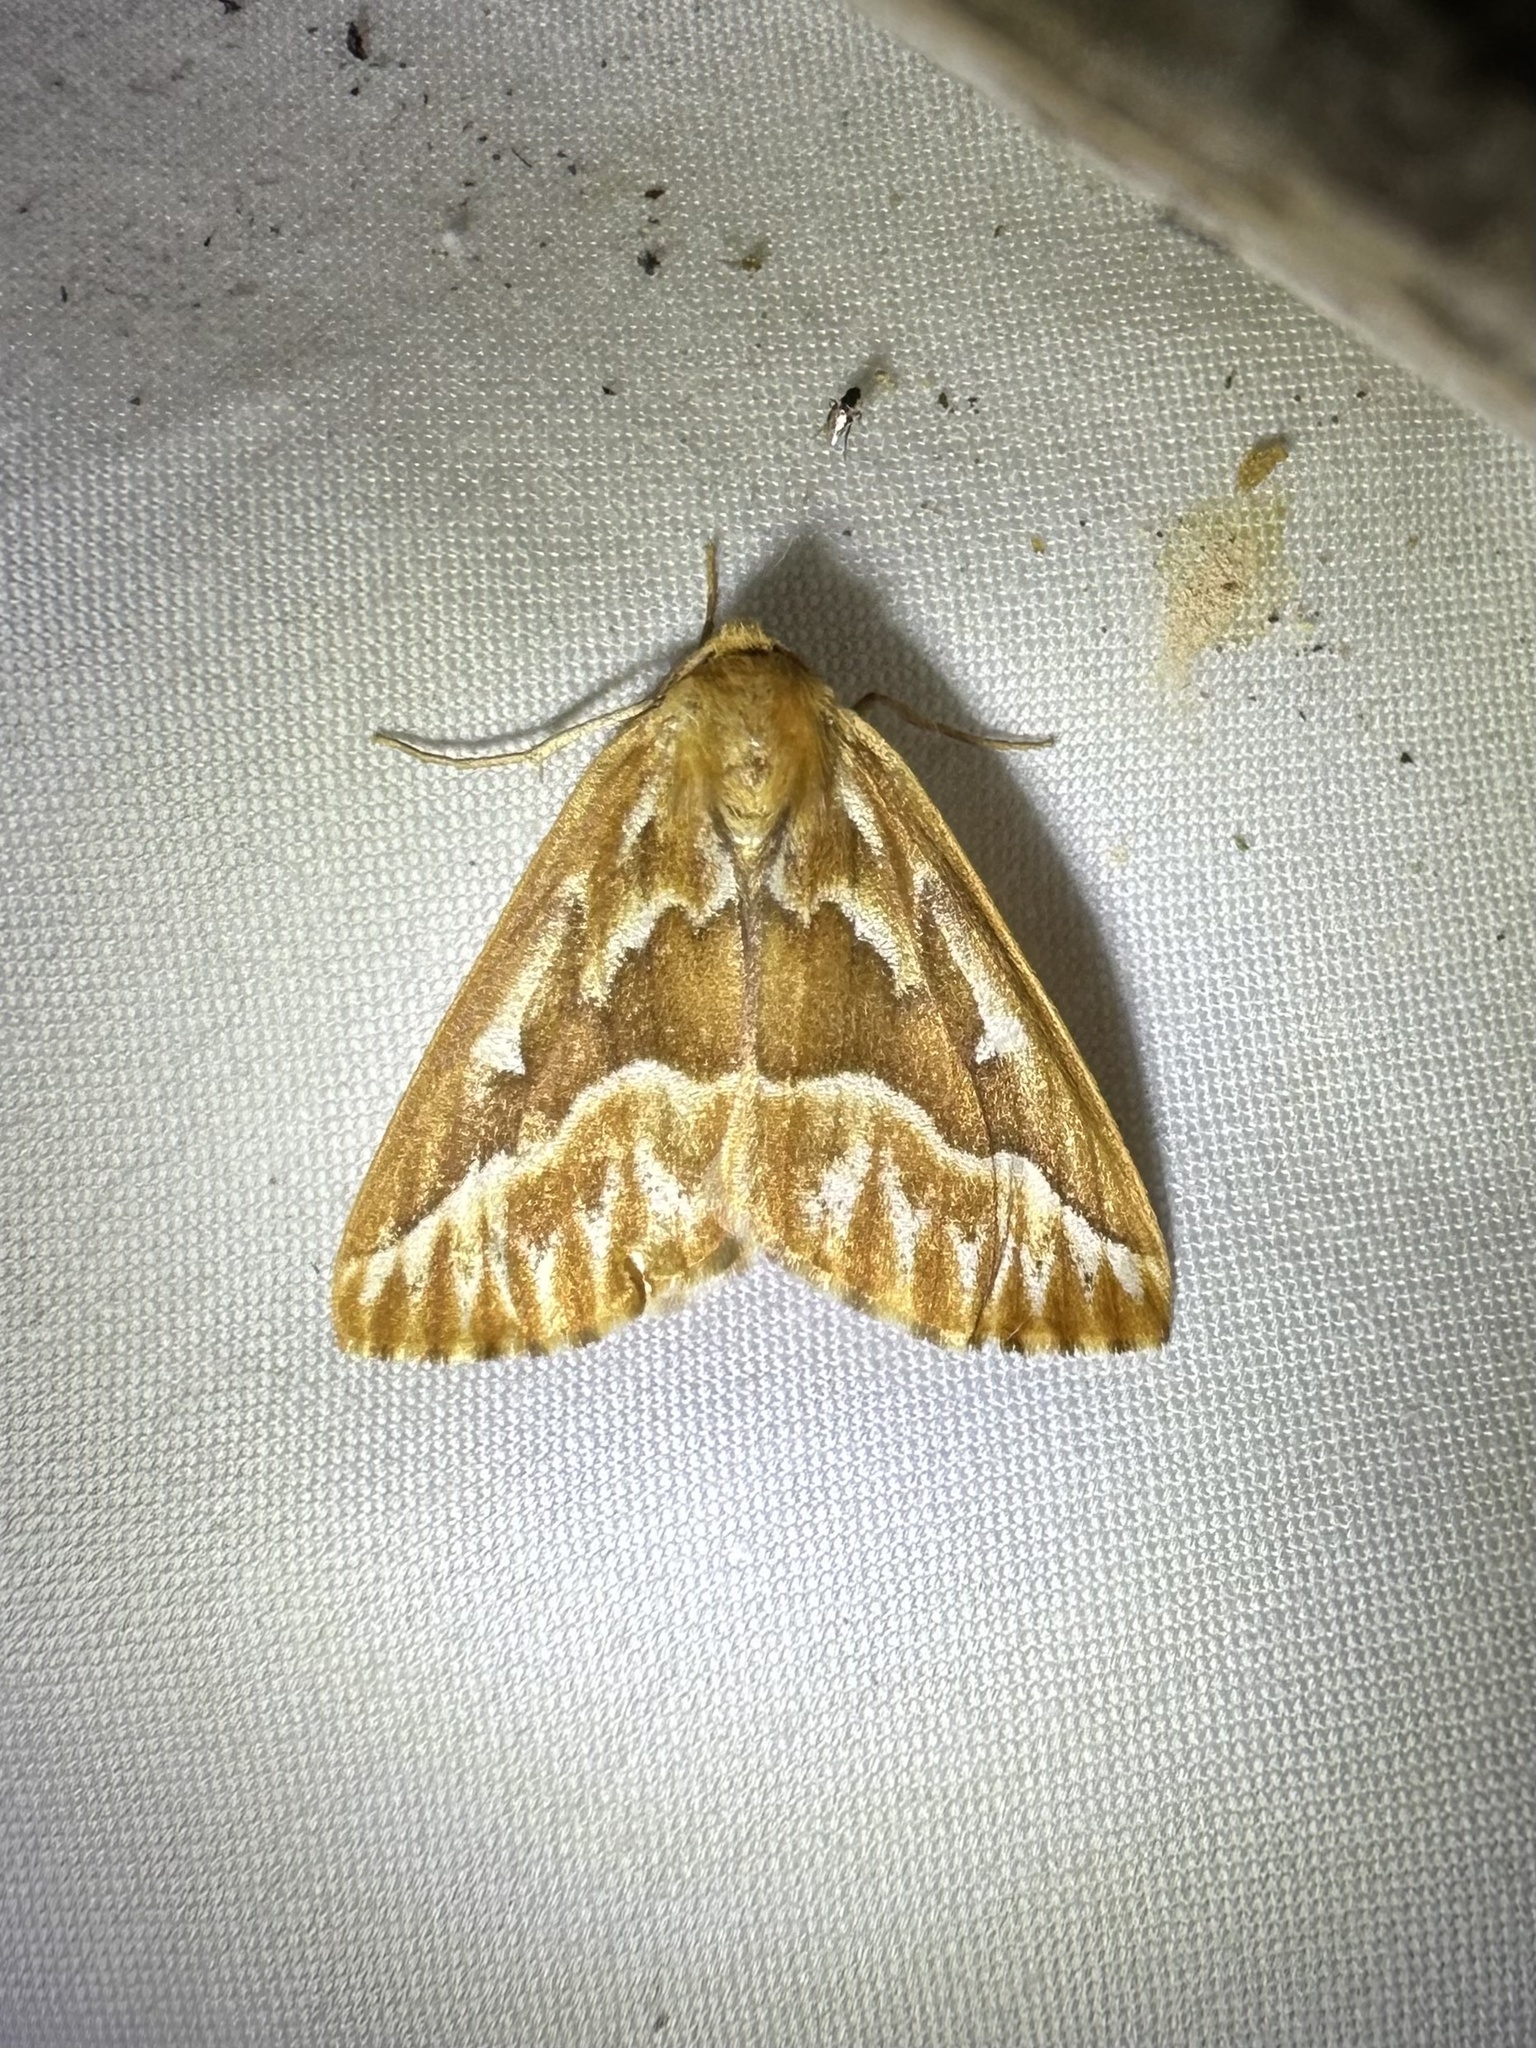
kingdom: Animalia
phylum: Arthropoda
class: Insecta
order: Lepidoptera
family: Geometridae
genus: Caripeta
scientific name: Caripeta piniata
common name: Northern pine looper moth
